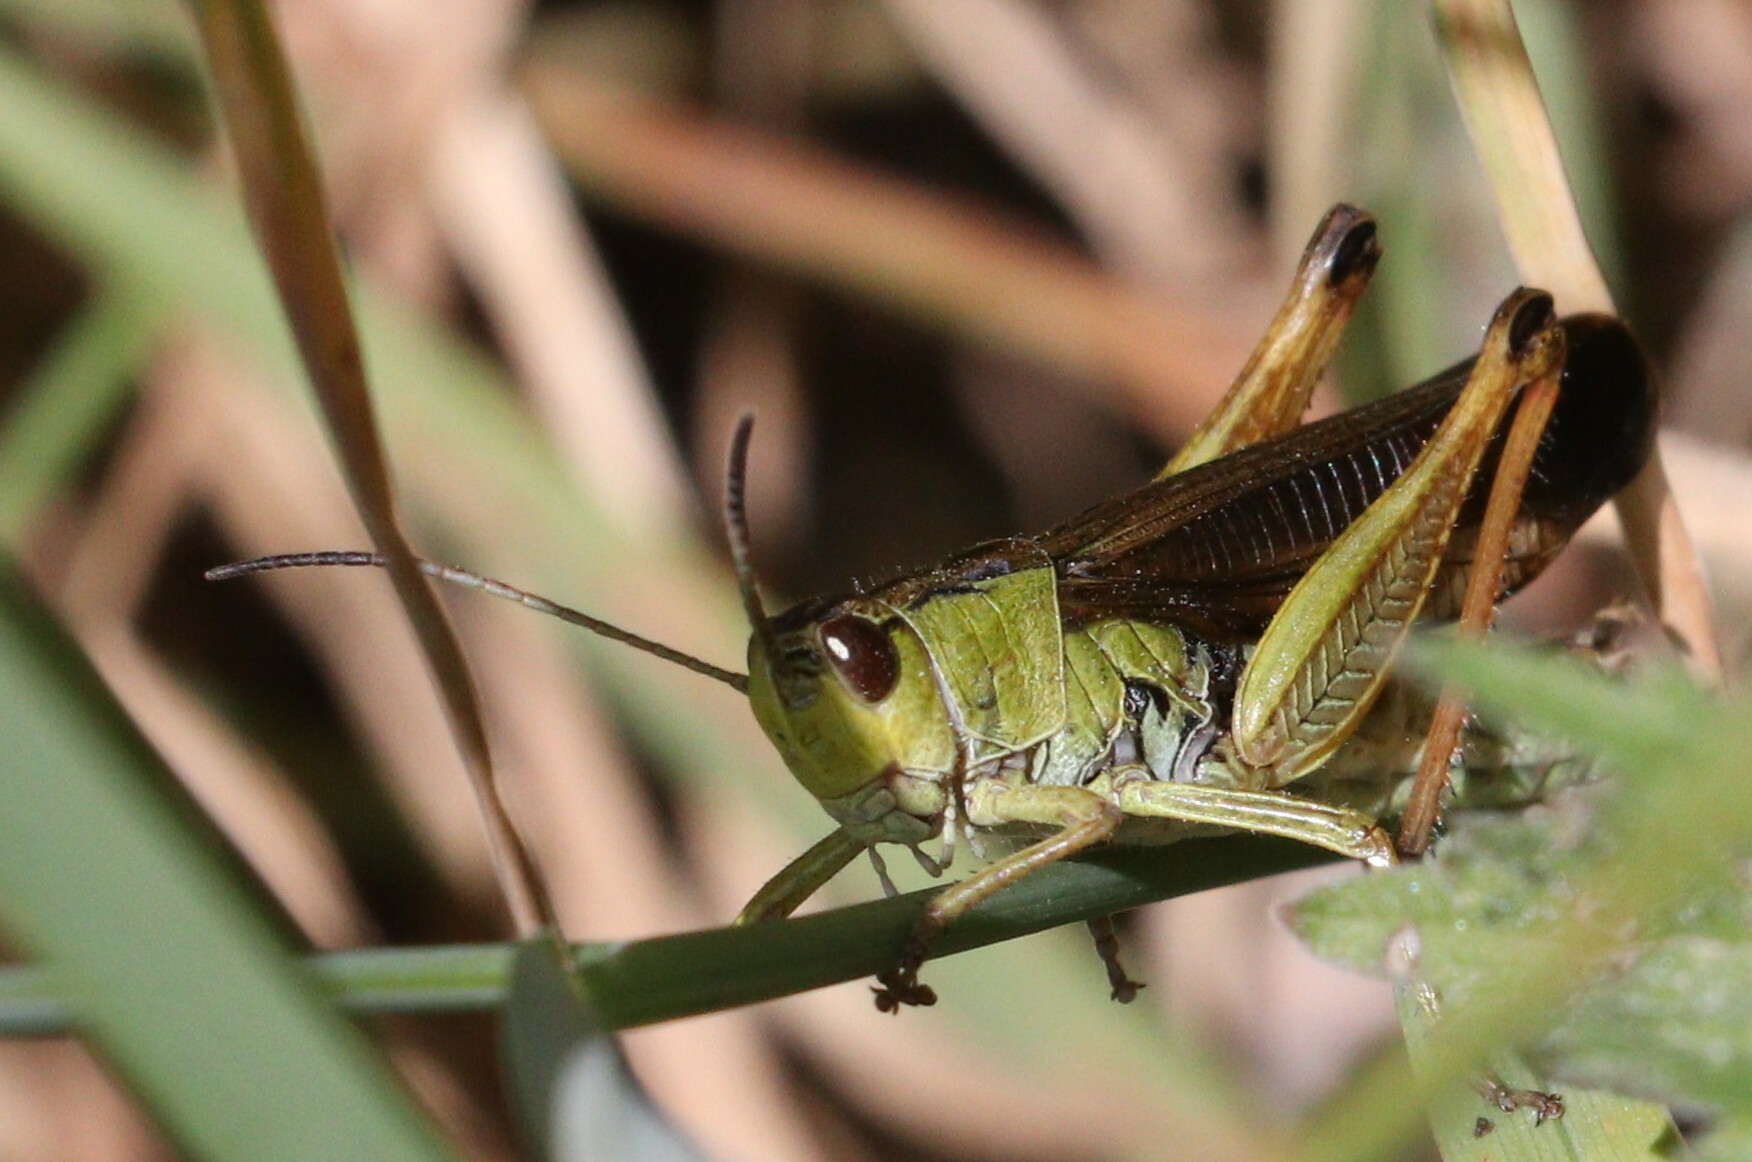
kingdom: Animalia
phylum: Arthropoda
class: Insecta
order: Orthoptera
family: Acrididae
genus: Stauroderus
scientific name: Stauroderus scalaris
